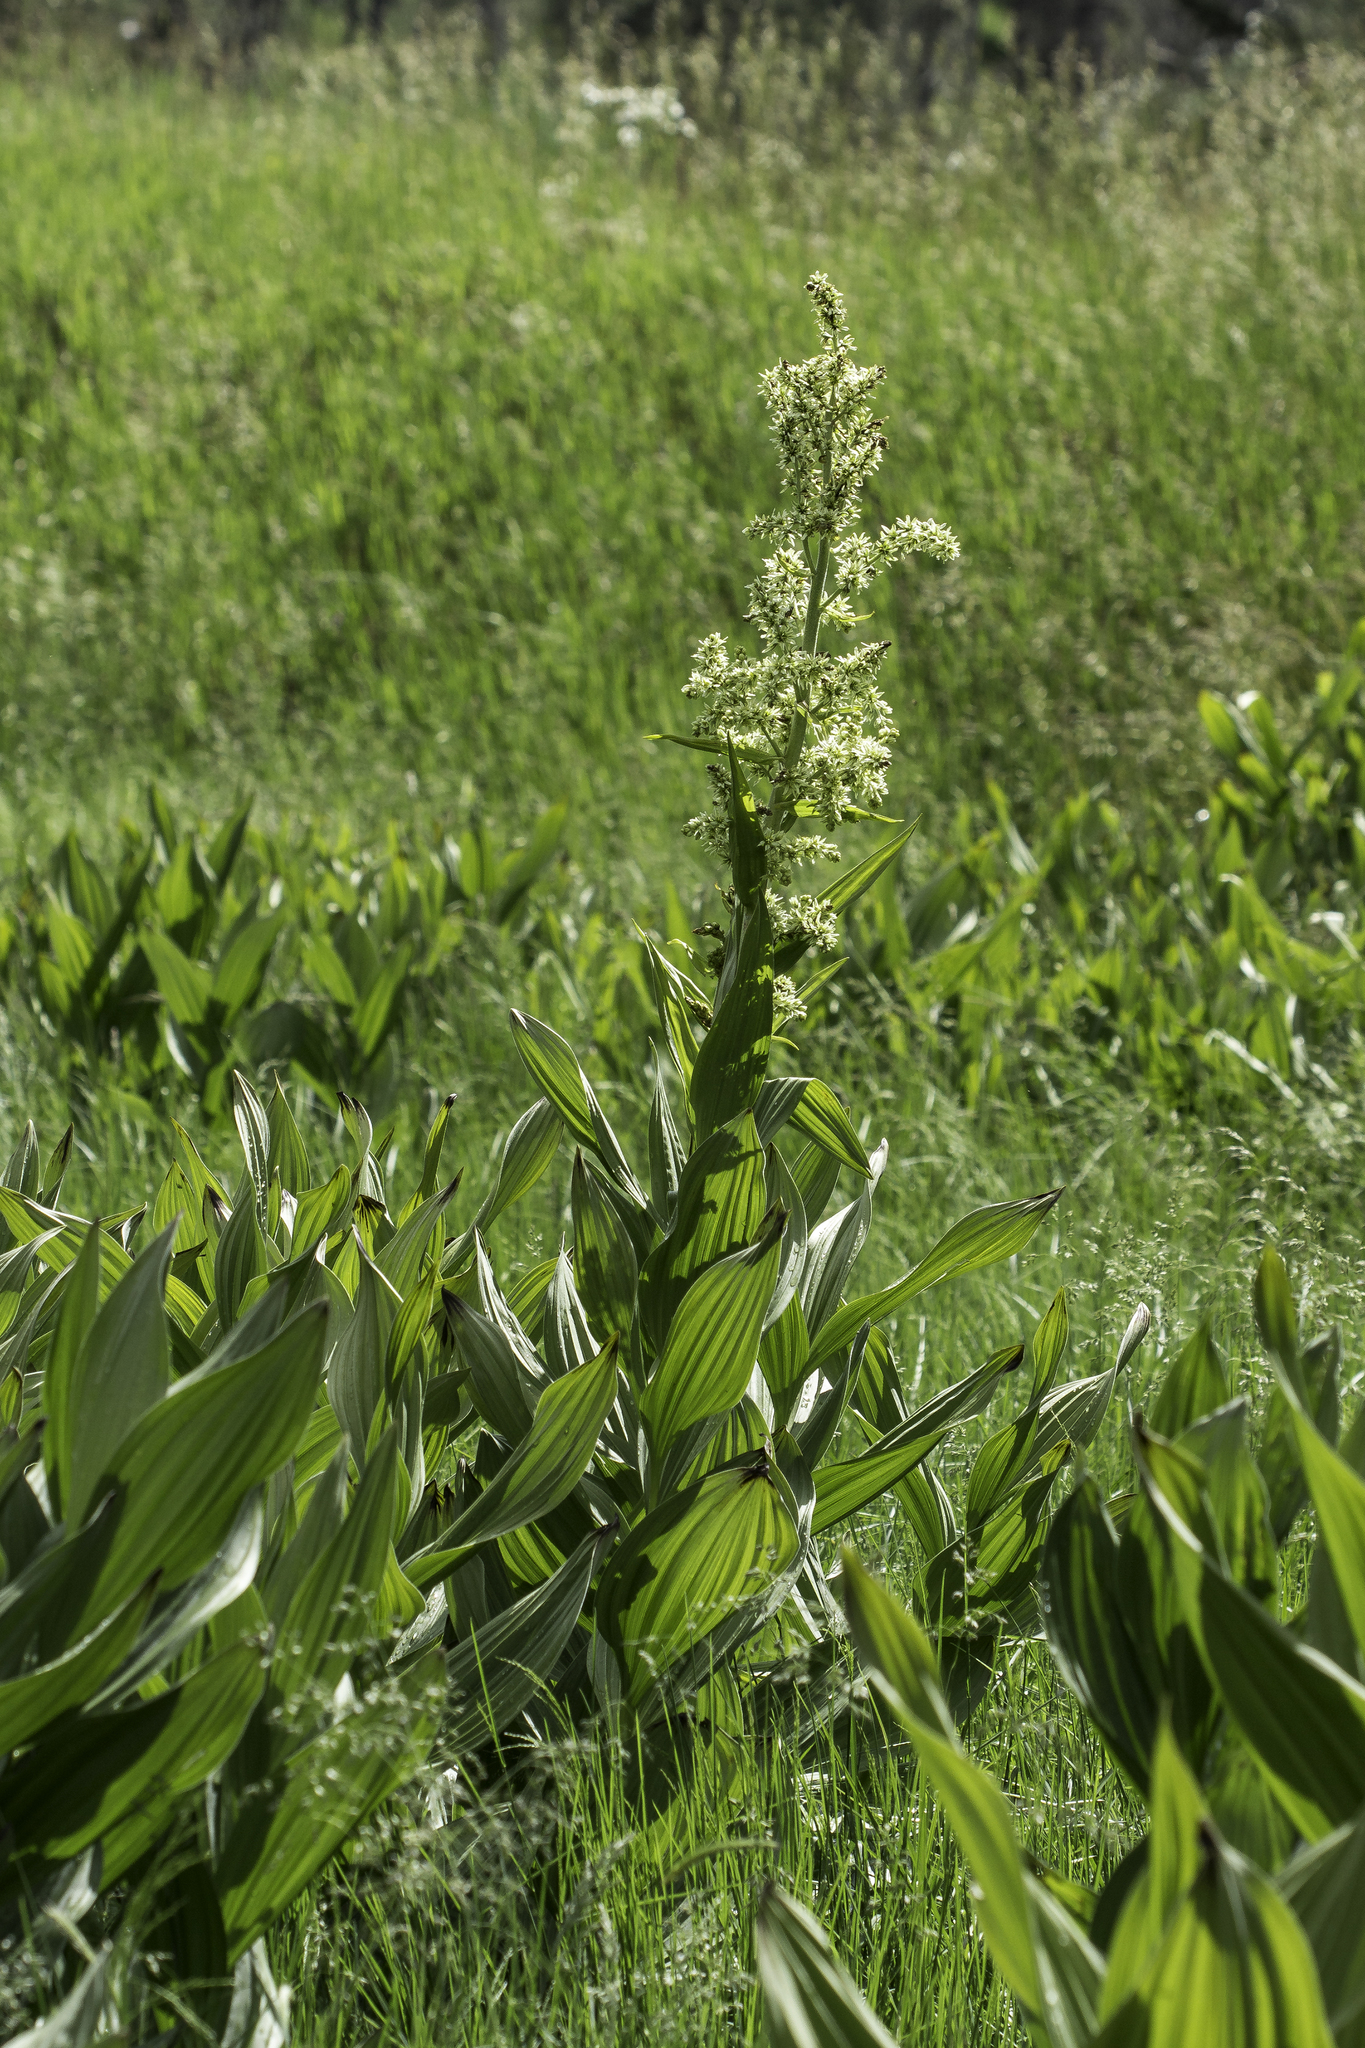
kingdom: Plantae
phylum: Tracheophyta
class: Liliopsida
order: Liliales
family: Melanthiaceae
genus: Veratrum
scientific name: Veratrum californicum
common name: California veratrum
